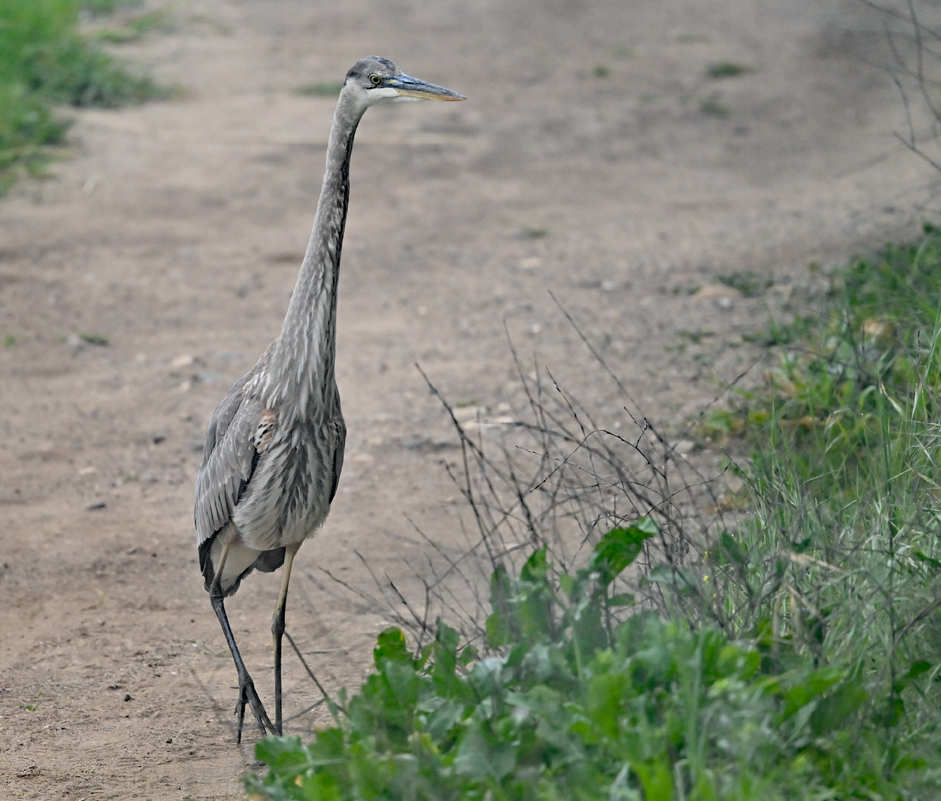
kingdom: Animalia
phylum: Chordata
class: Aves
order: Pelecaniformes
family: Ardeidae
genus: Ardea
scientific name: Ardea herodias
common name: Great blue heron
